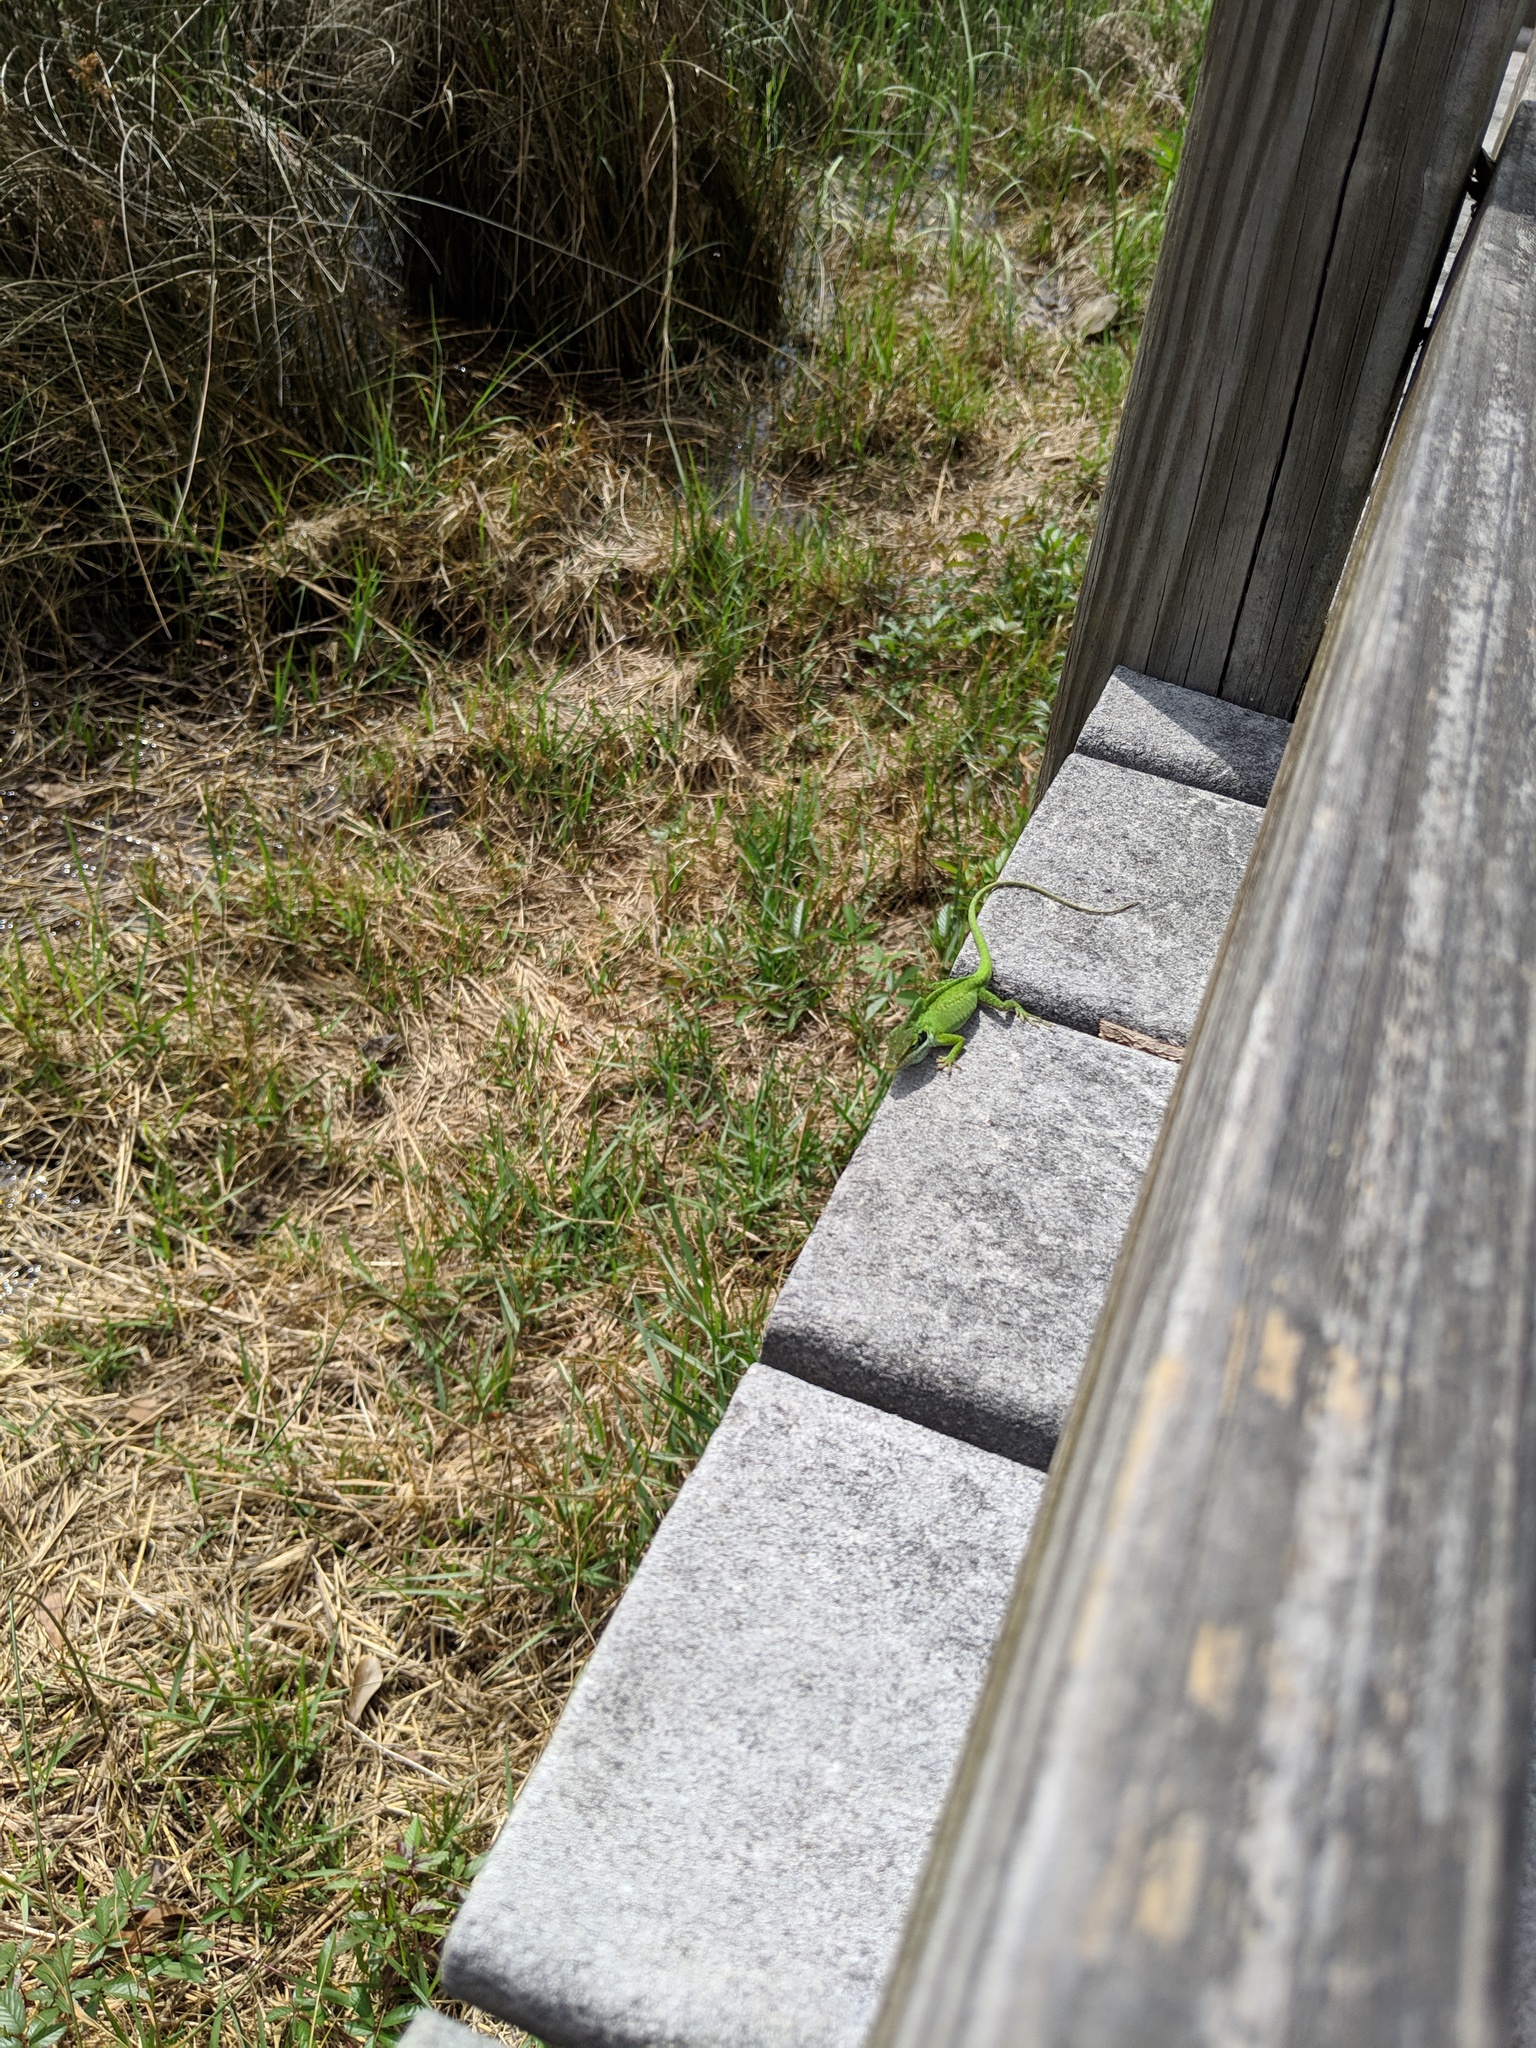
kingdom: Animalia
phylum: Chordata
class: Squamata
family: Dactyloidae
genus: Anolis
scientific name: Anolis carolinensis
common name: Green anole
